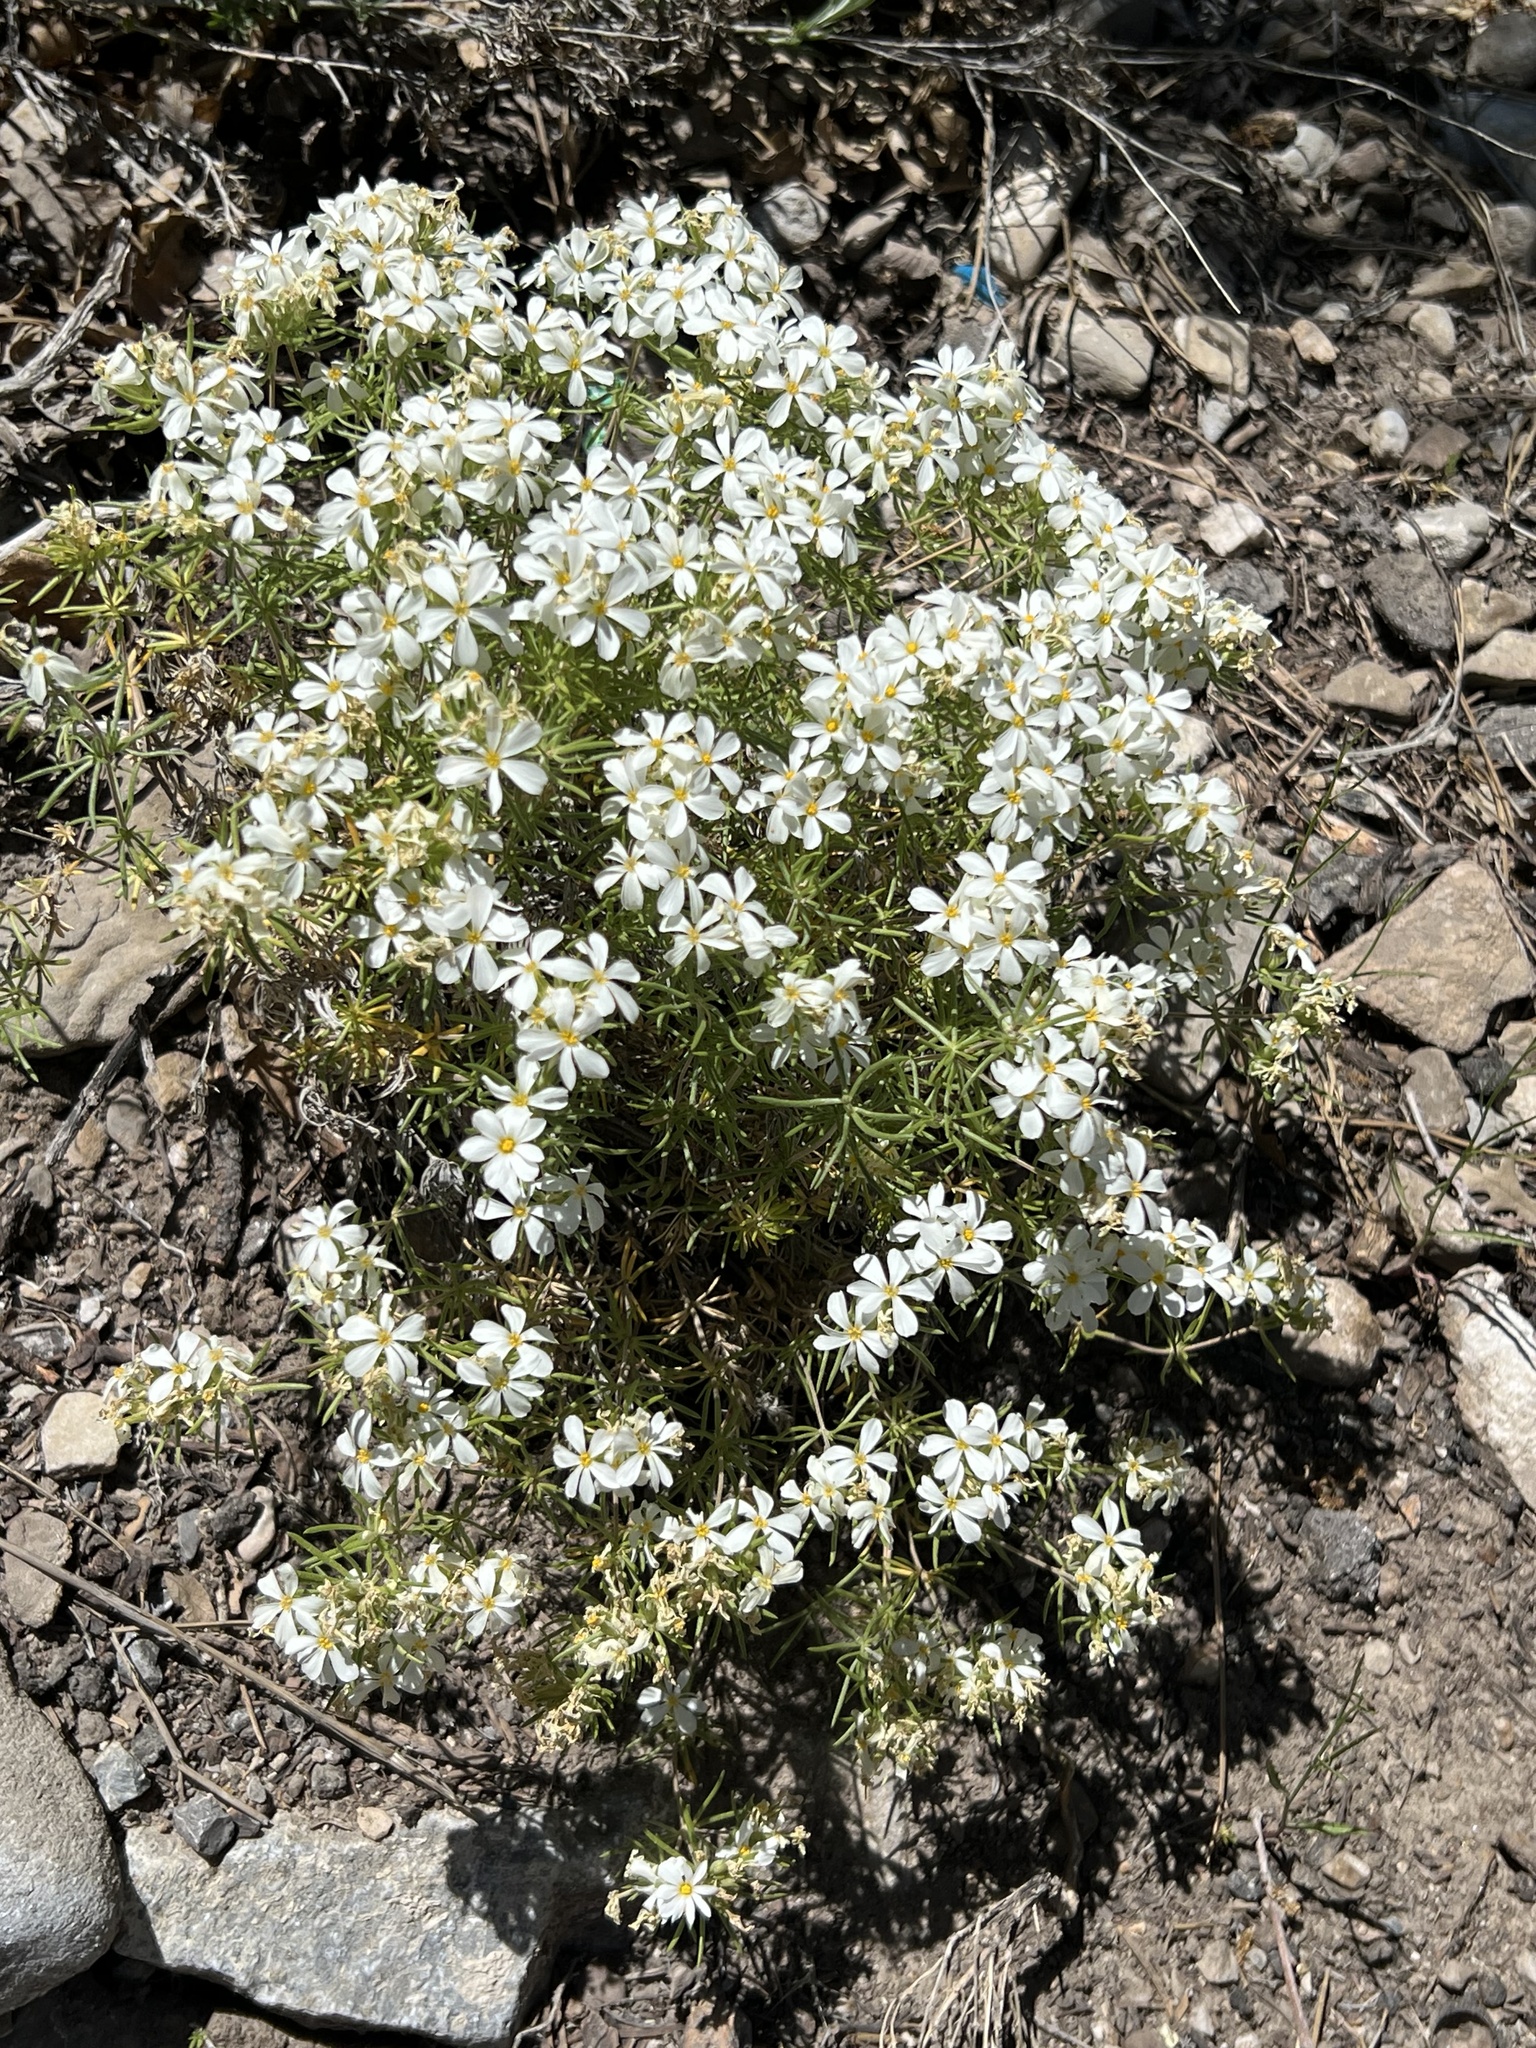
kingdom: Plantae
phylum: Tracheophyta
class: Magnoliopsida
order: Ericales
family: Polemoniaceae
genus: Leptosiphon
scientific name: Leptosiphon nuttallii
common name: Nuttall's linanthus
